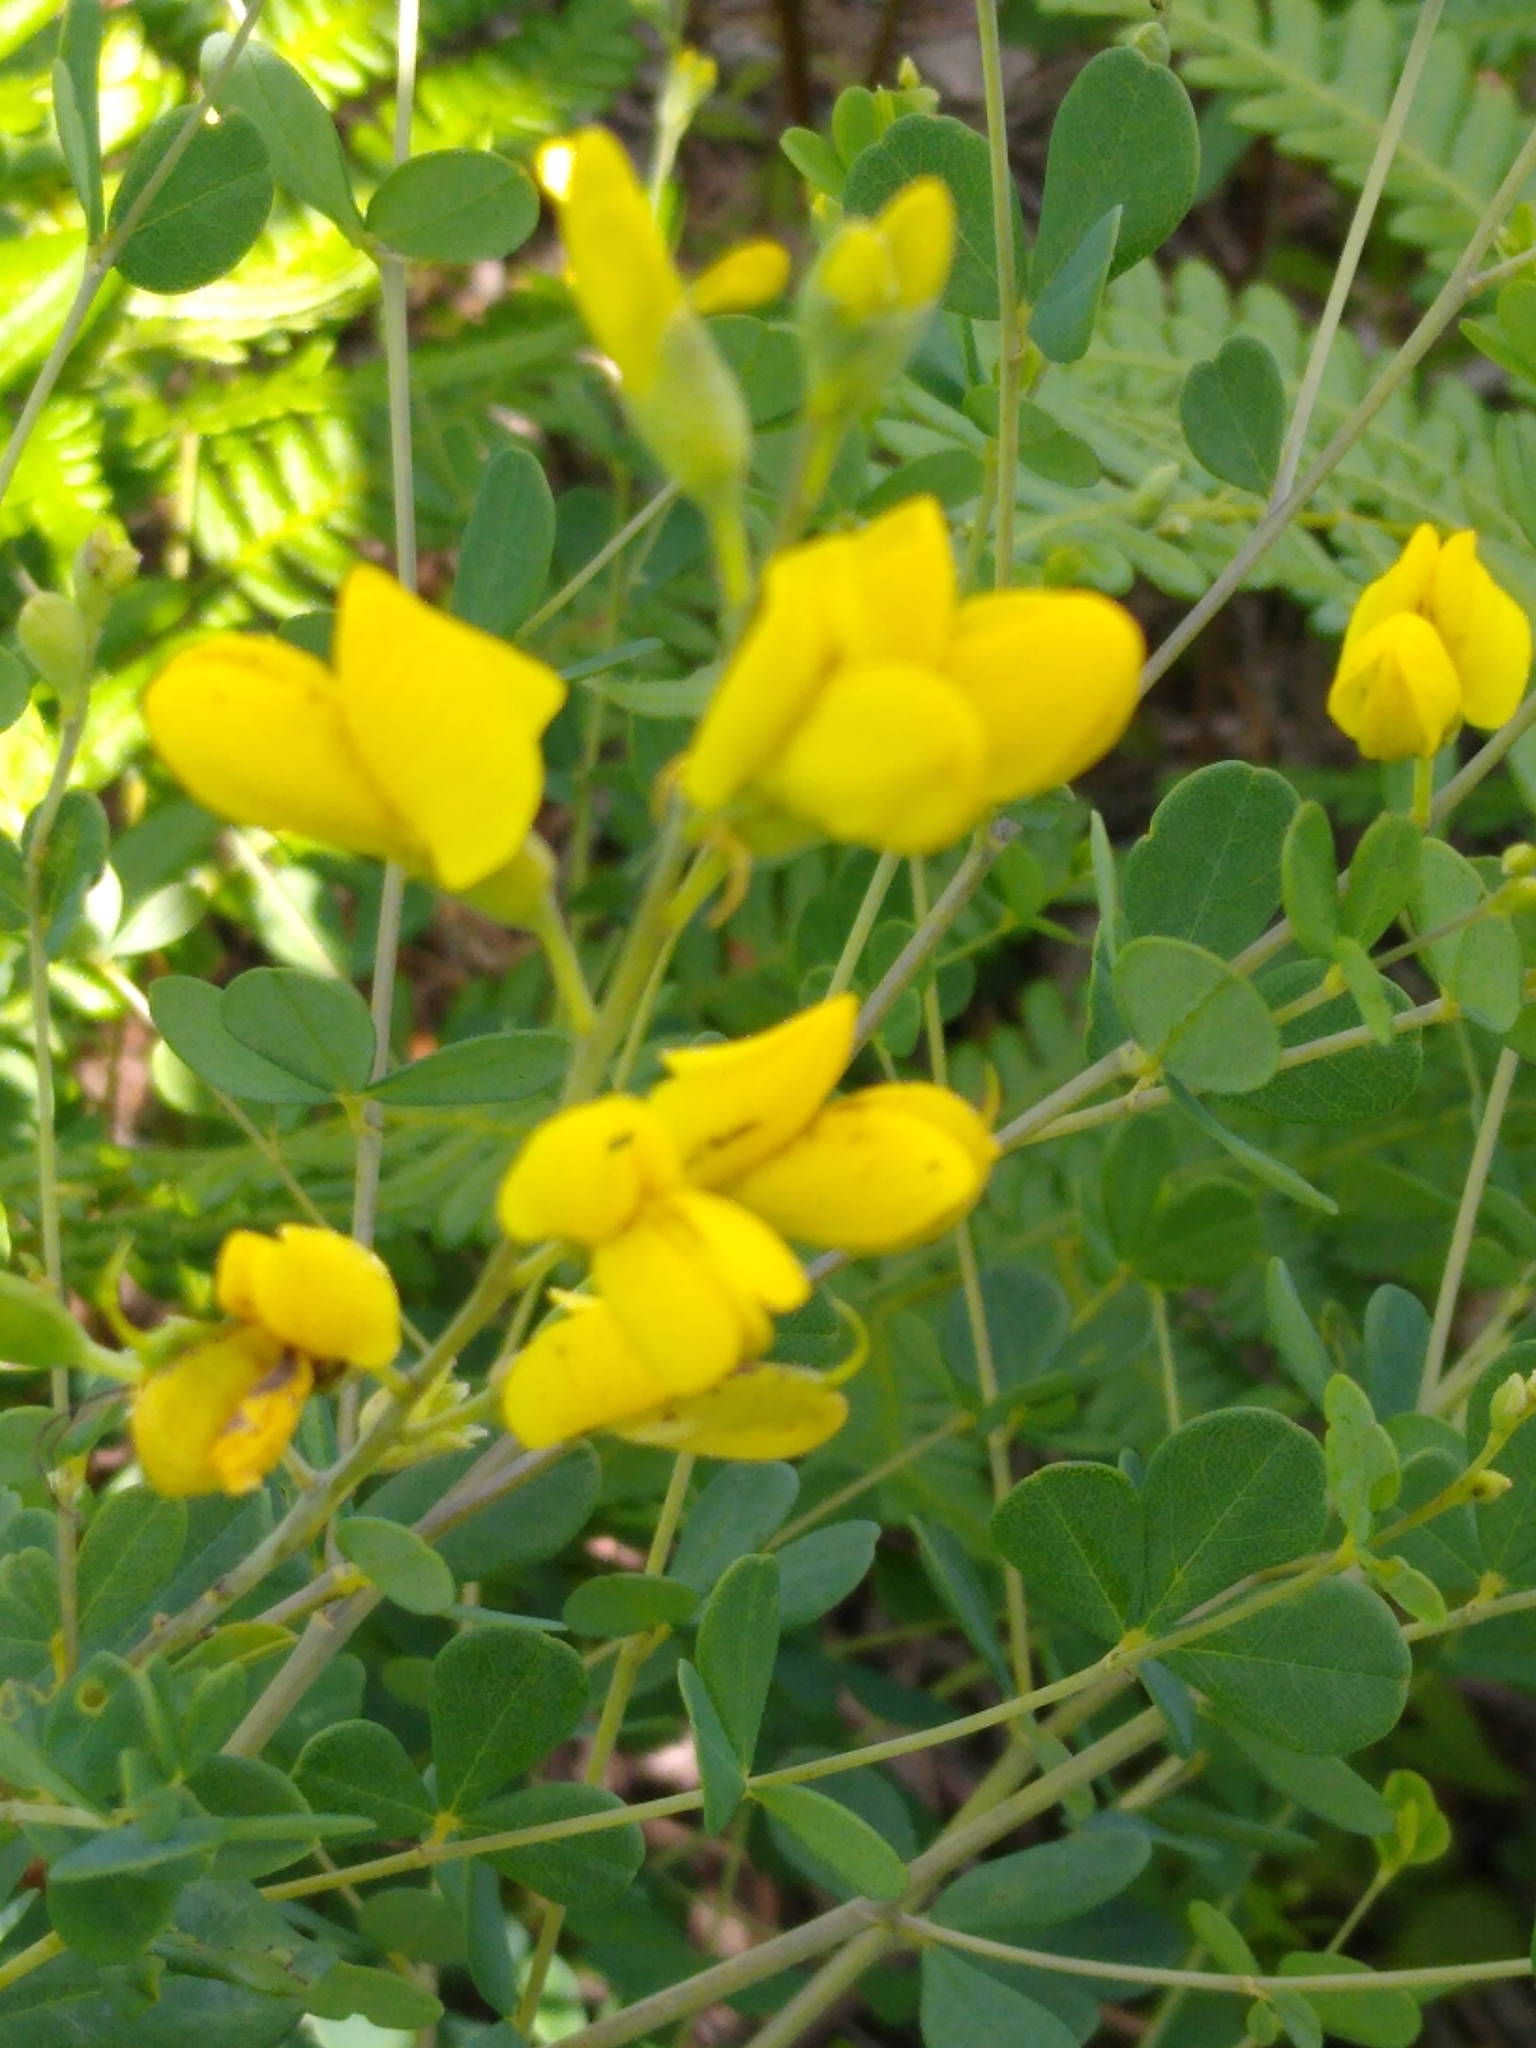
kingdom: Plantae
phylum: Tracheophyta
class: Magnoliopsida
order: Fabales
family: Fabaceae
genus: Baptisia
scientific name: Baptisia tinctoria
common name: Wild indigo
